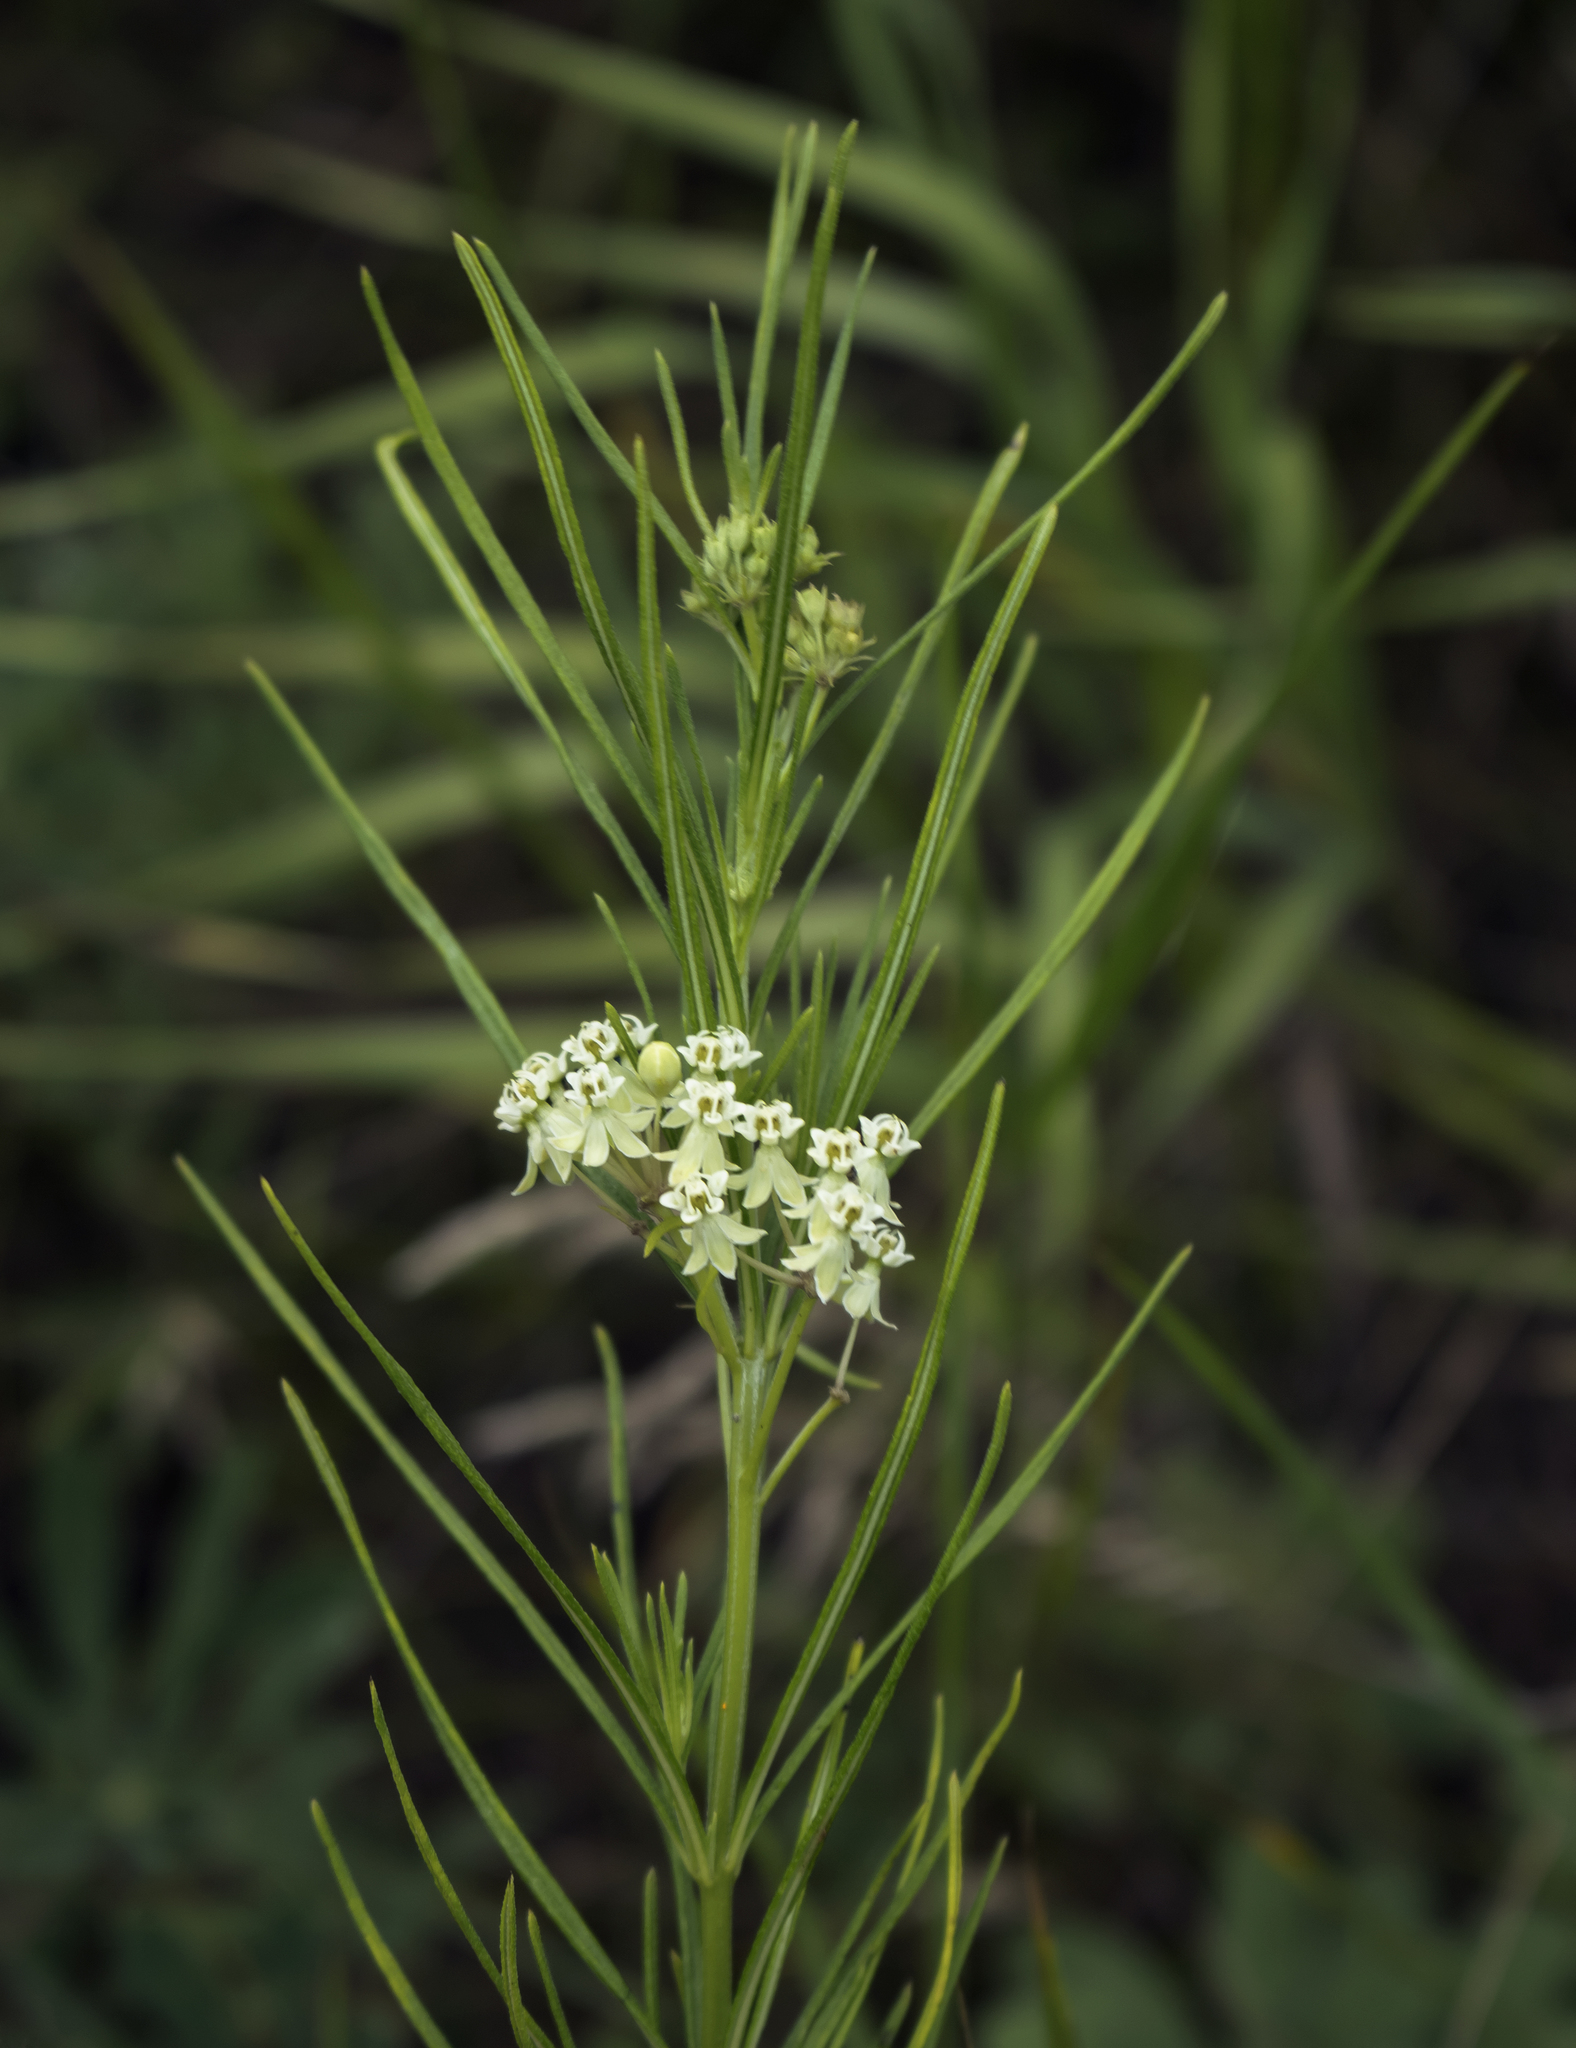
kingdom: Plantae
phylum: Tracheophyta
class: Magnoliopsida
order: Gentianales
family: Apocynaceae
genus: Asclepias
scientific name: Asclepias verticillata
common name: Eastern whorled milkweed
